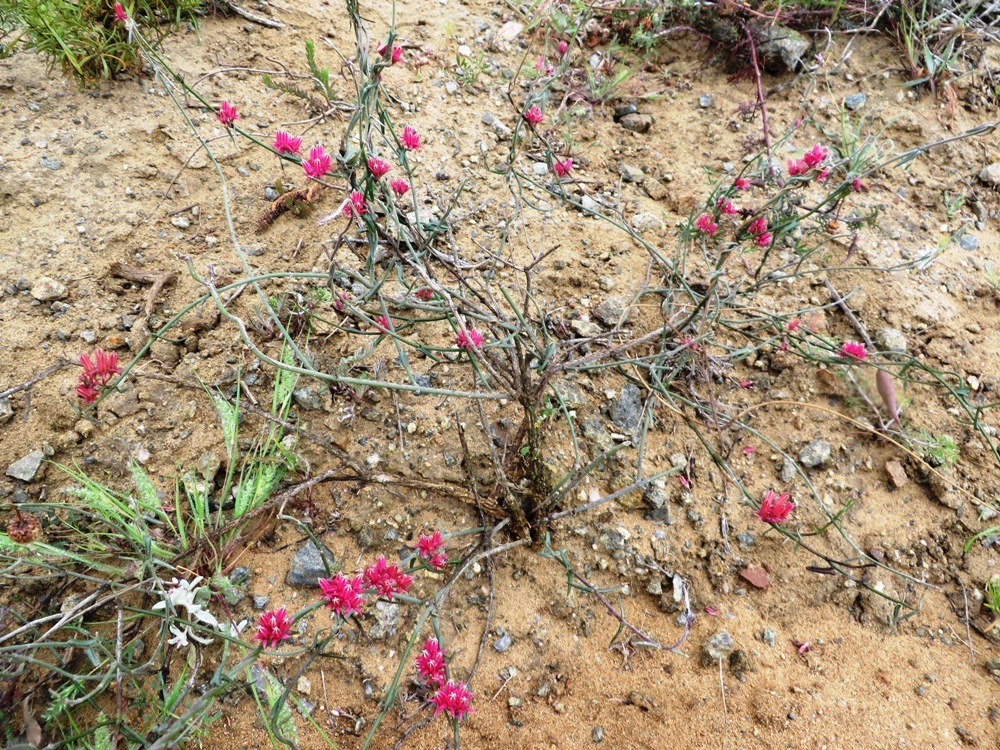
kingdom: Plantae
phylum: Tracheophyta
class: Magnoliopsida
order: Gentianales
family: Apocynaceae
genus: Microloma
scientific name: Microloma sagittatum
